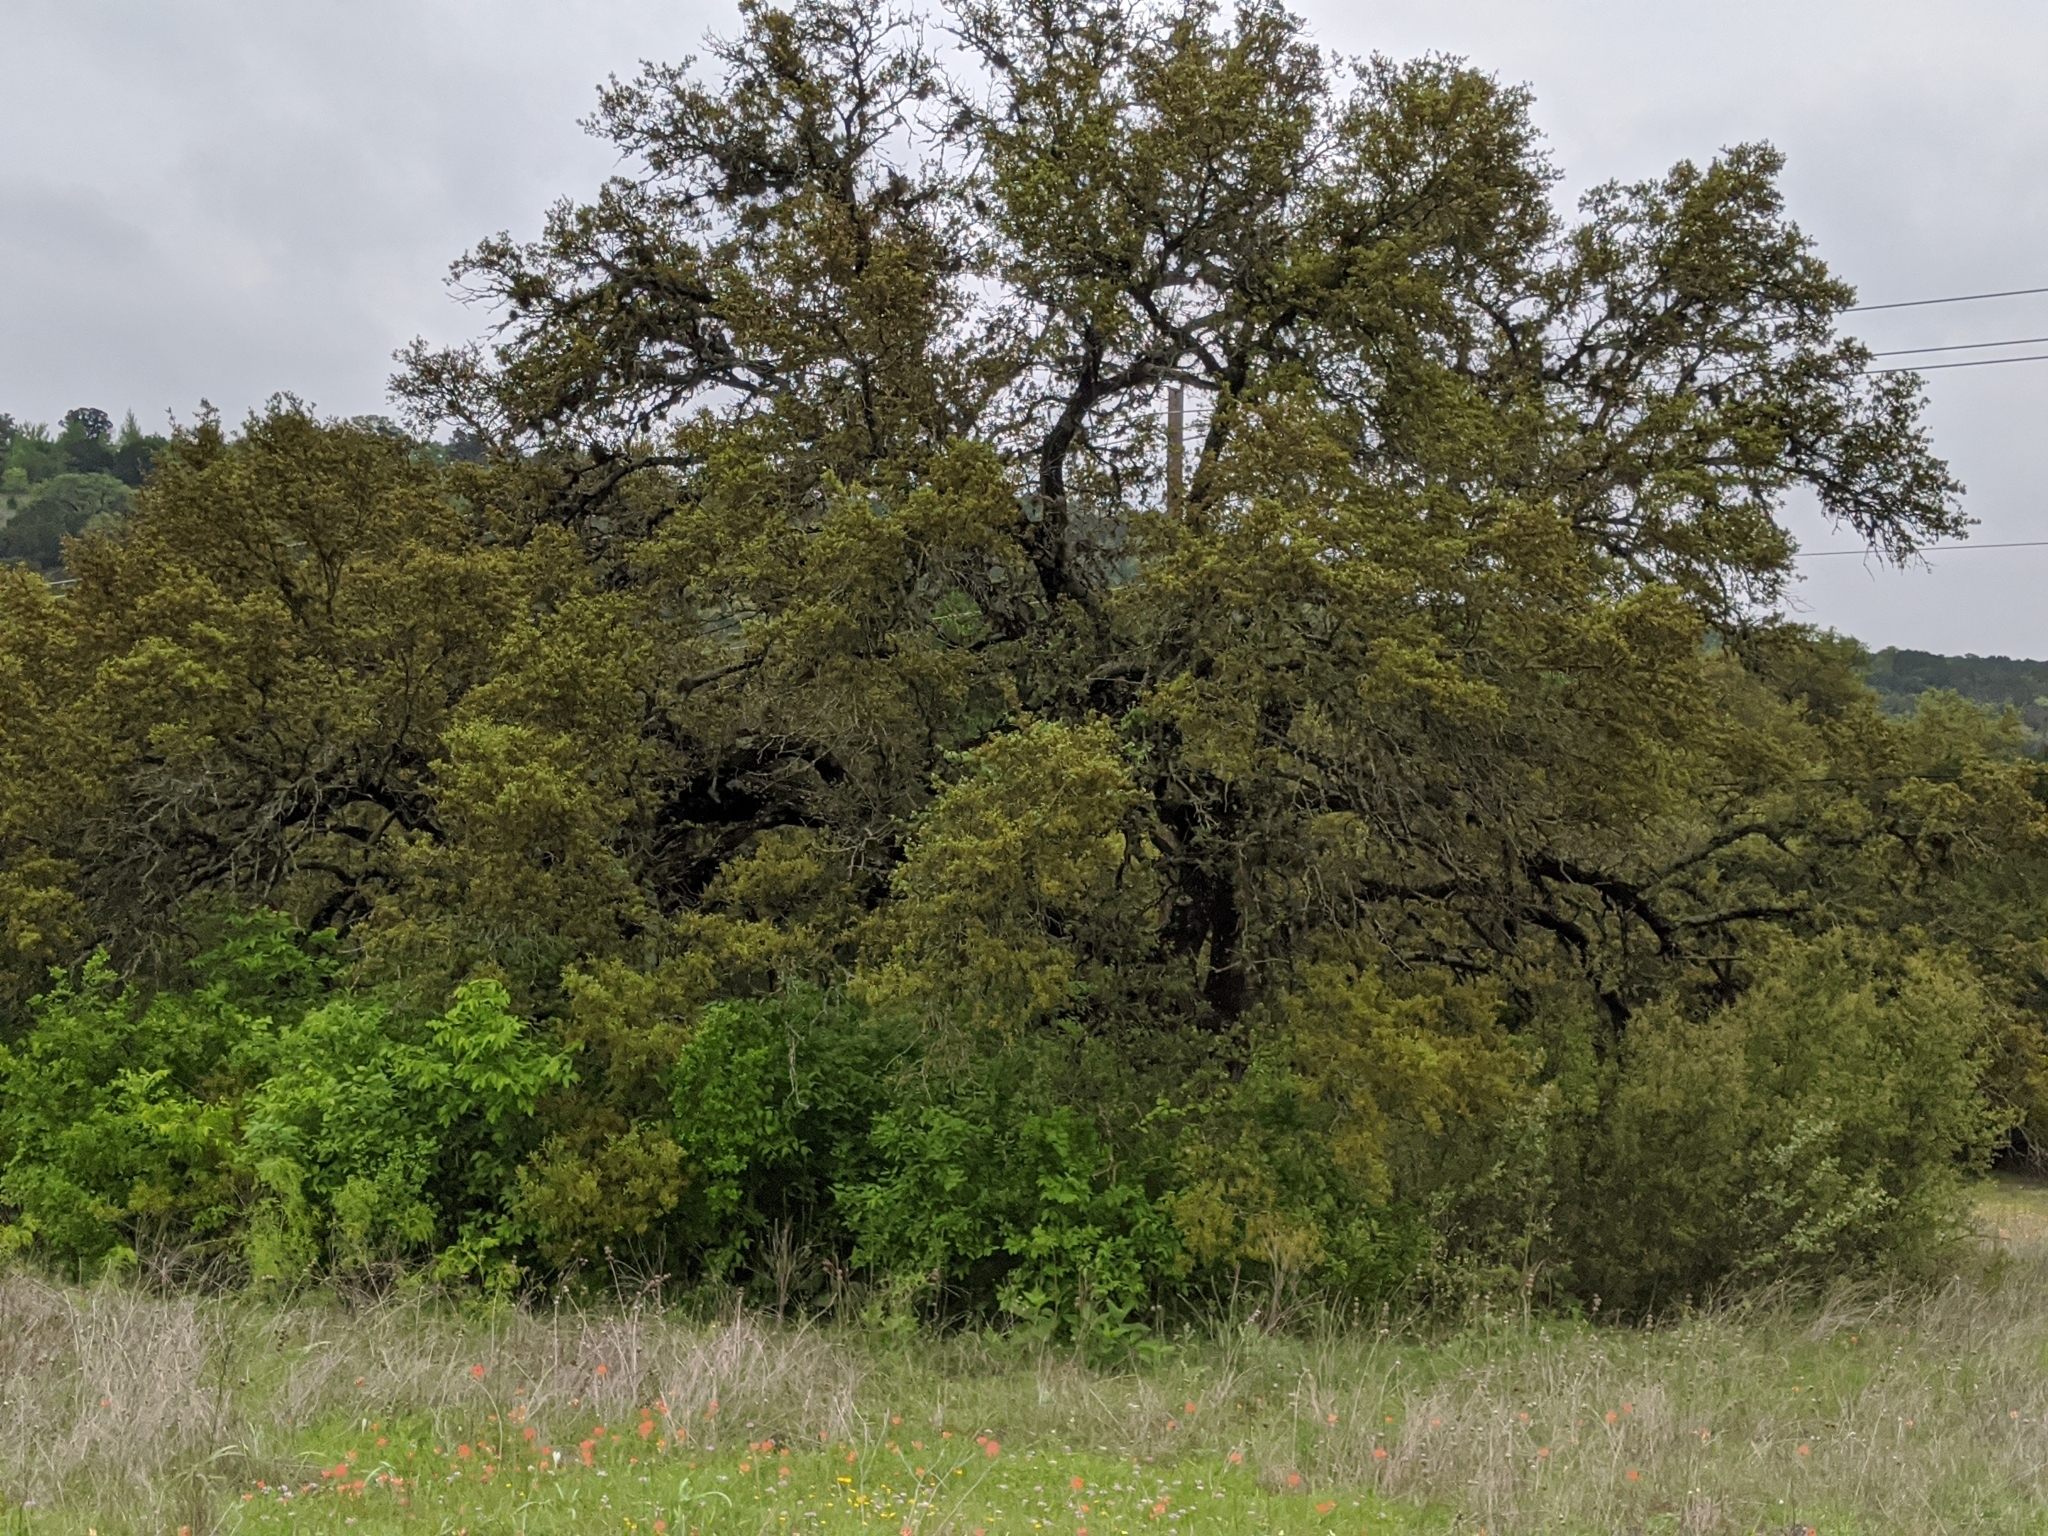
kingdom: Plantae
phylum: Tracheophyta
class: Magnoliopsida
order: Fagales
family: Fagaceae
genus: Quercus
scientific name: Quercus fusiformis
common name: Texas live oak
